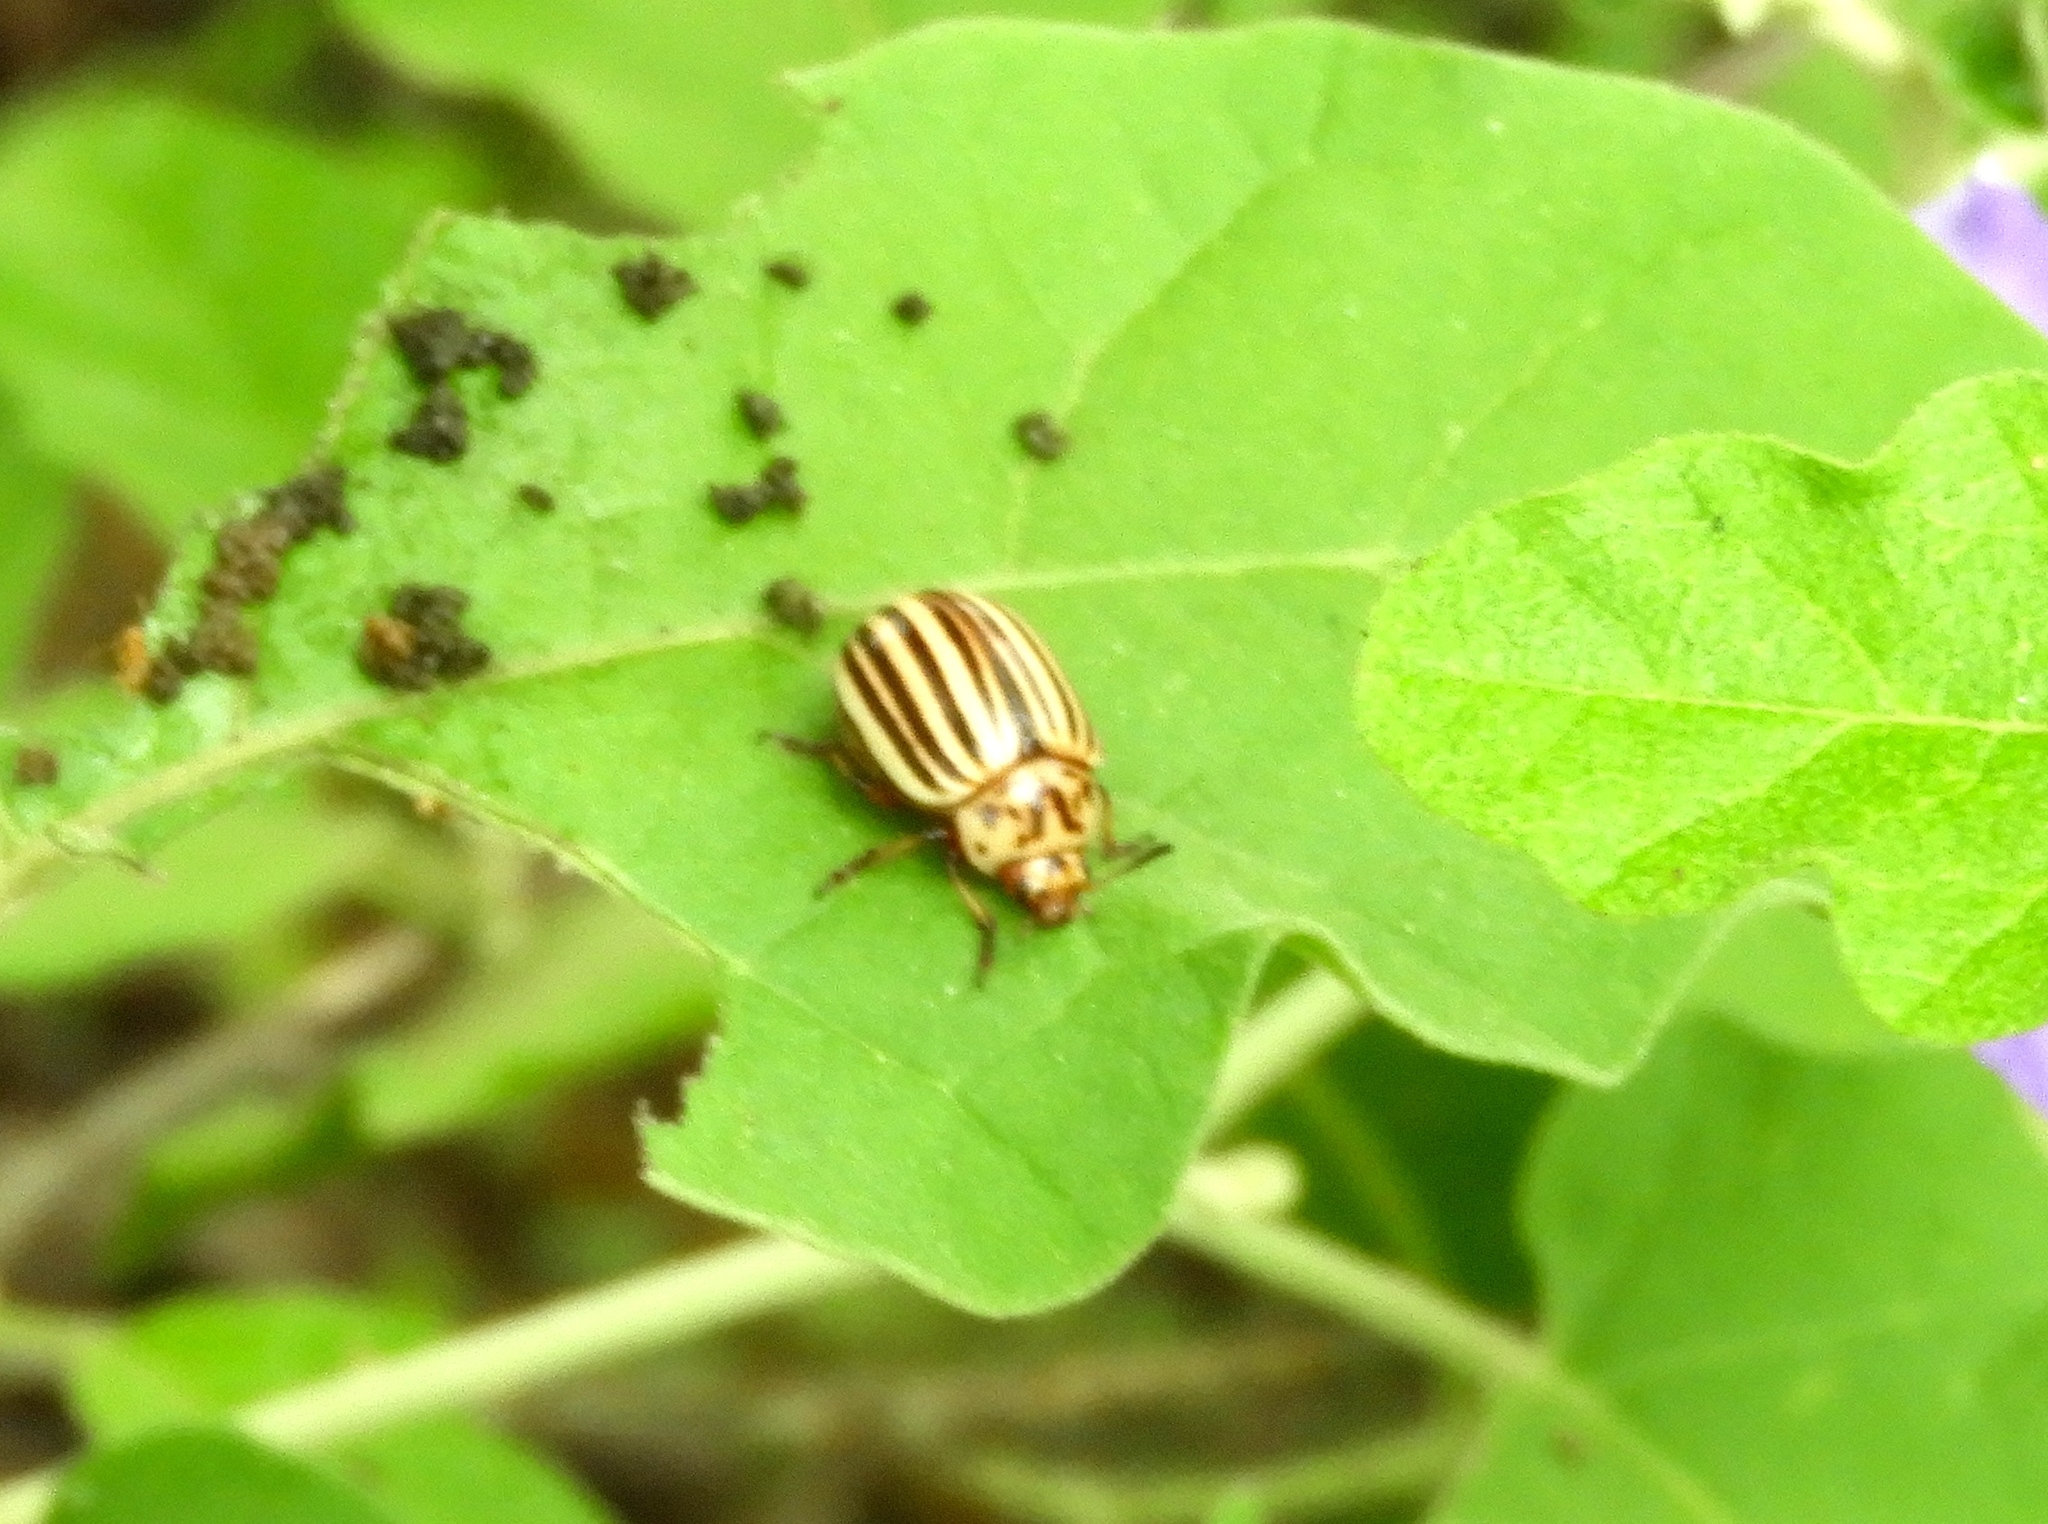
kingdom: Animalia
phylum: Arthropoda
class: Insecta
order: Coleoptera
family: Chrysomelidae
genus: Leptinotarsa
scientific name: Leptinotarsa
